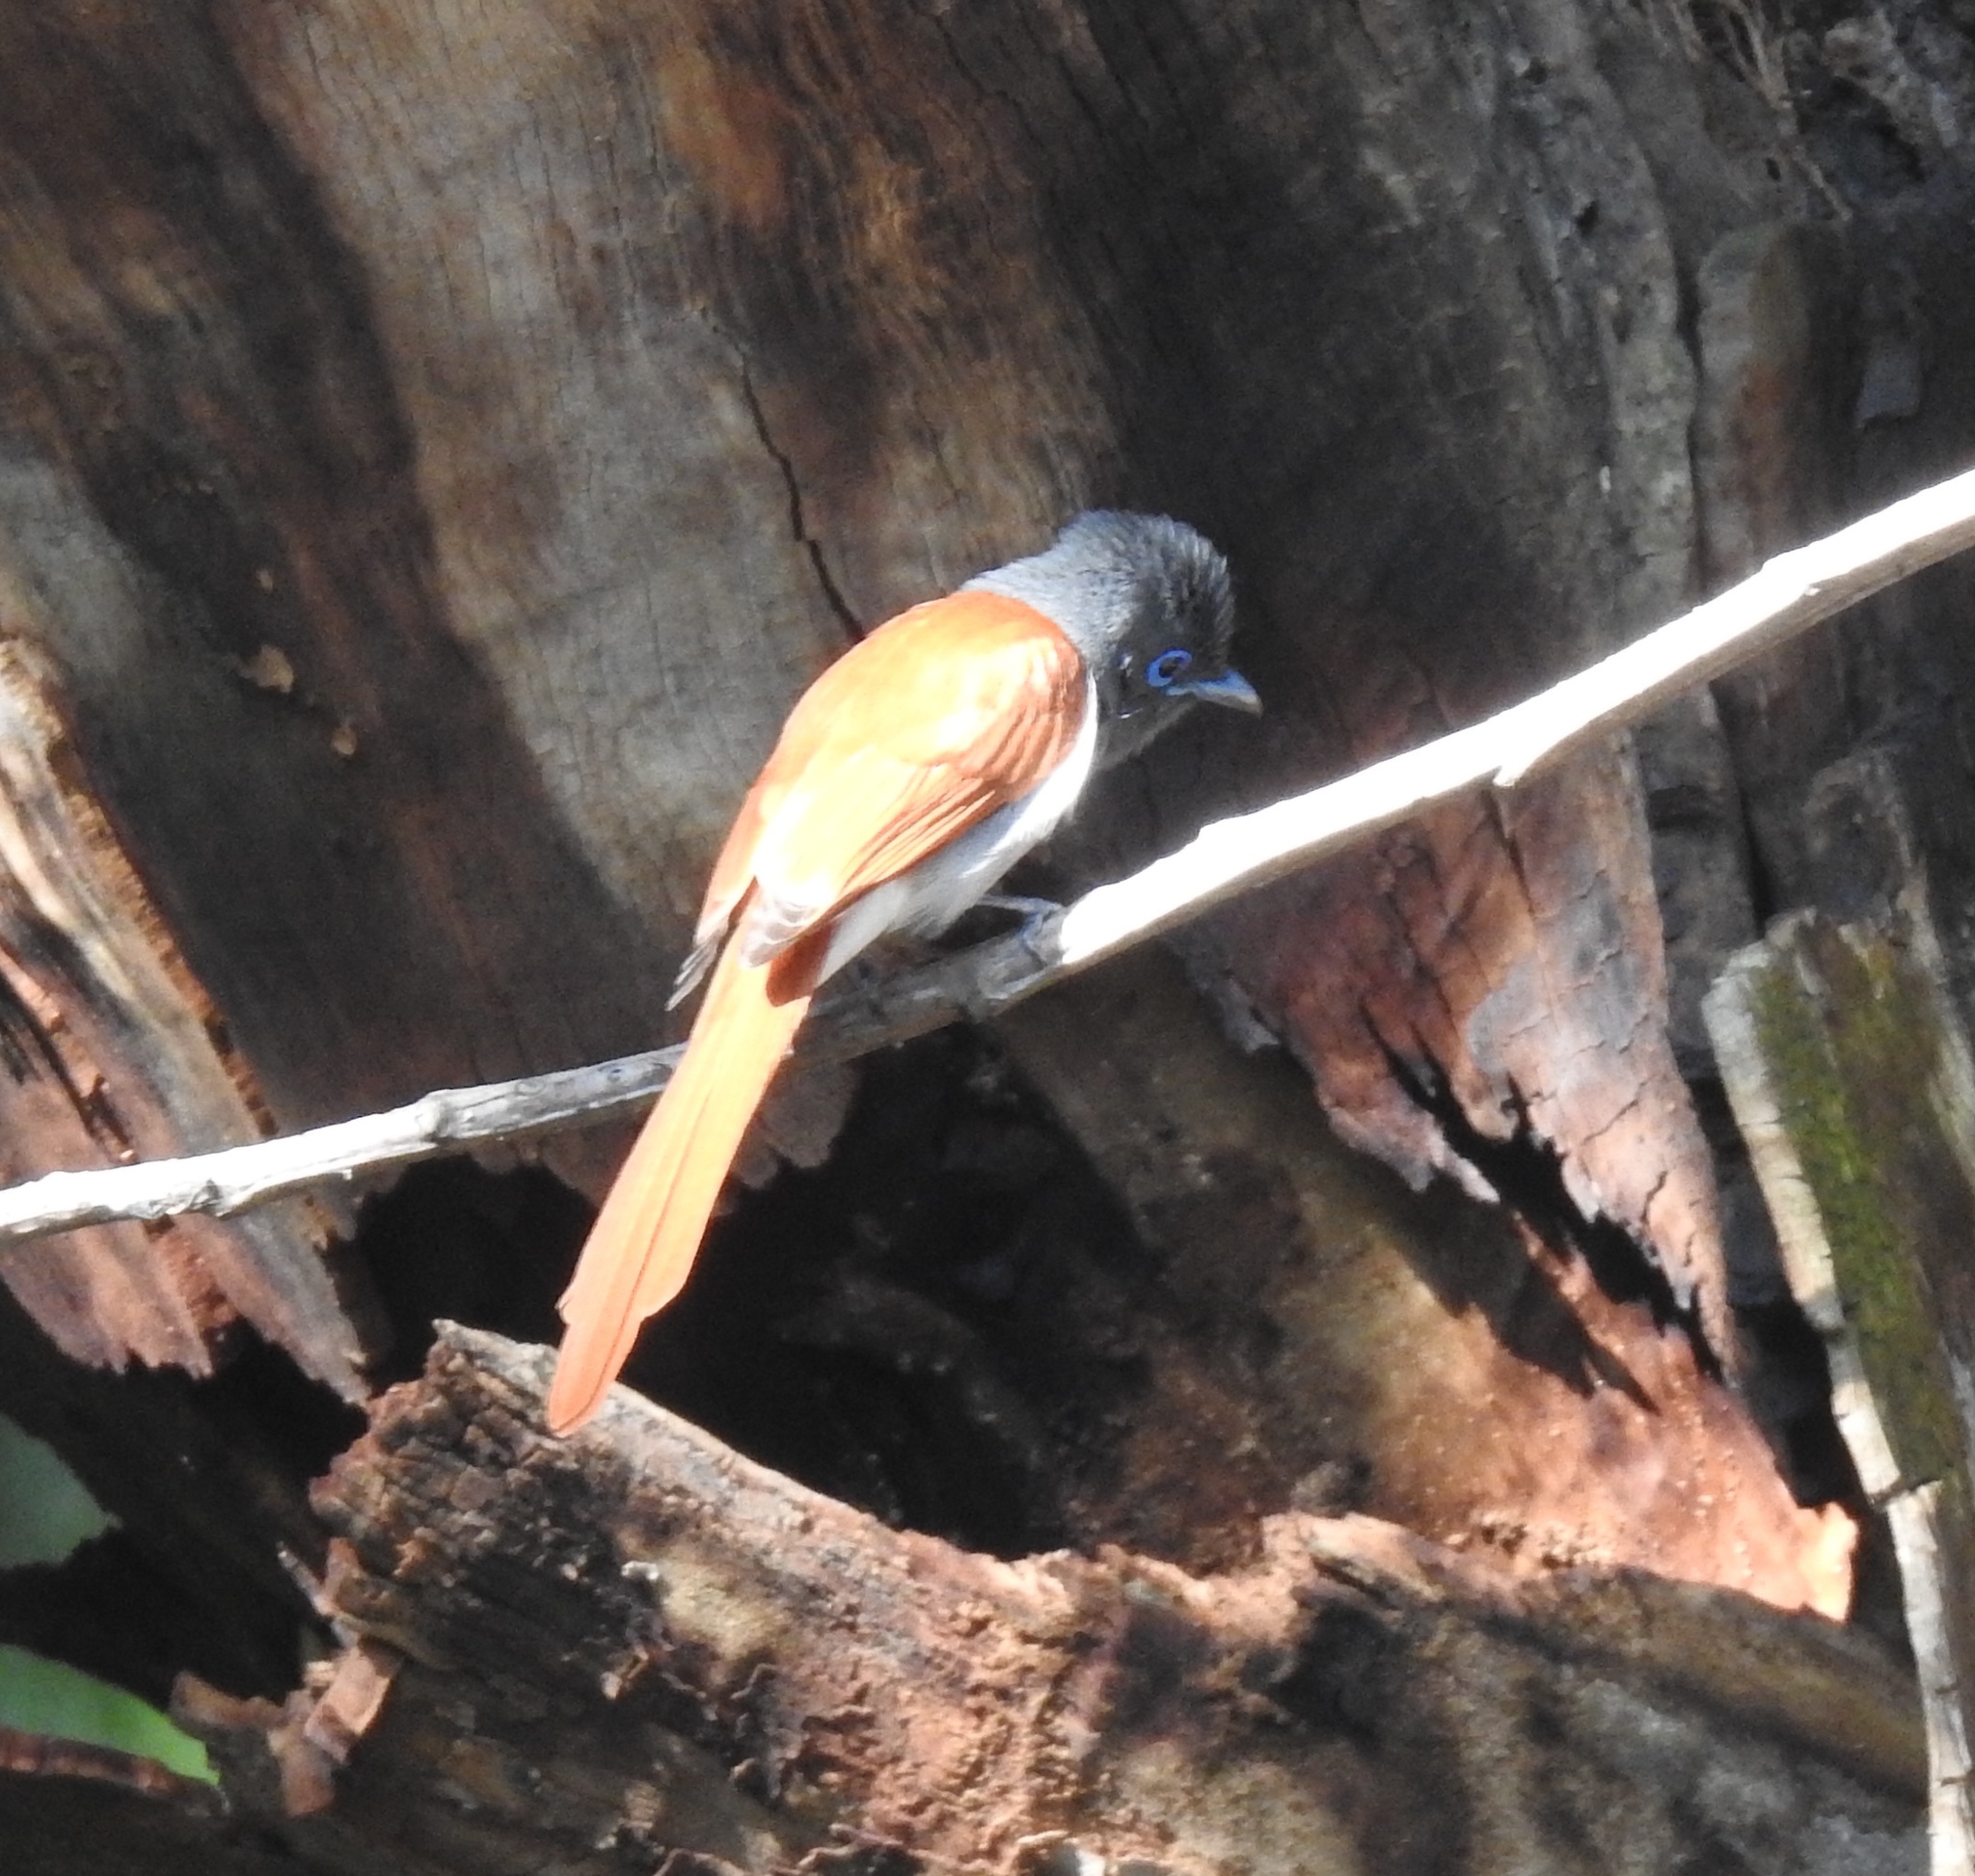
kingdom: Animalia
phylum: Chordata
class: Aves
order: Passeriformes
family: Monarchidae
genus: Terpsiphone
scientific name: Terpsiphone viridis
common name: African paradise flycatcher
